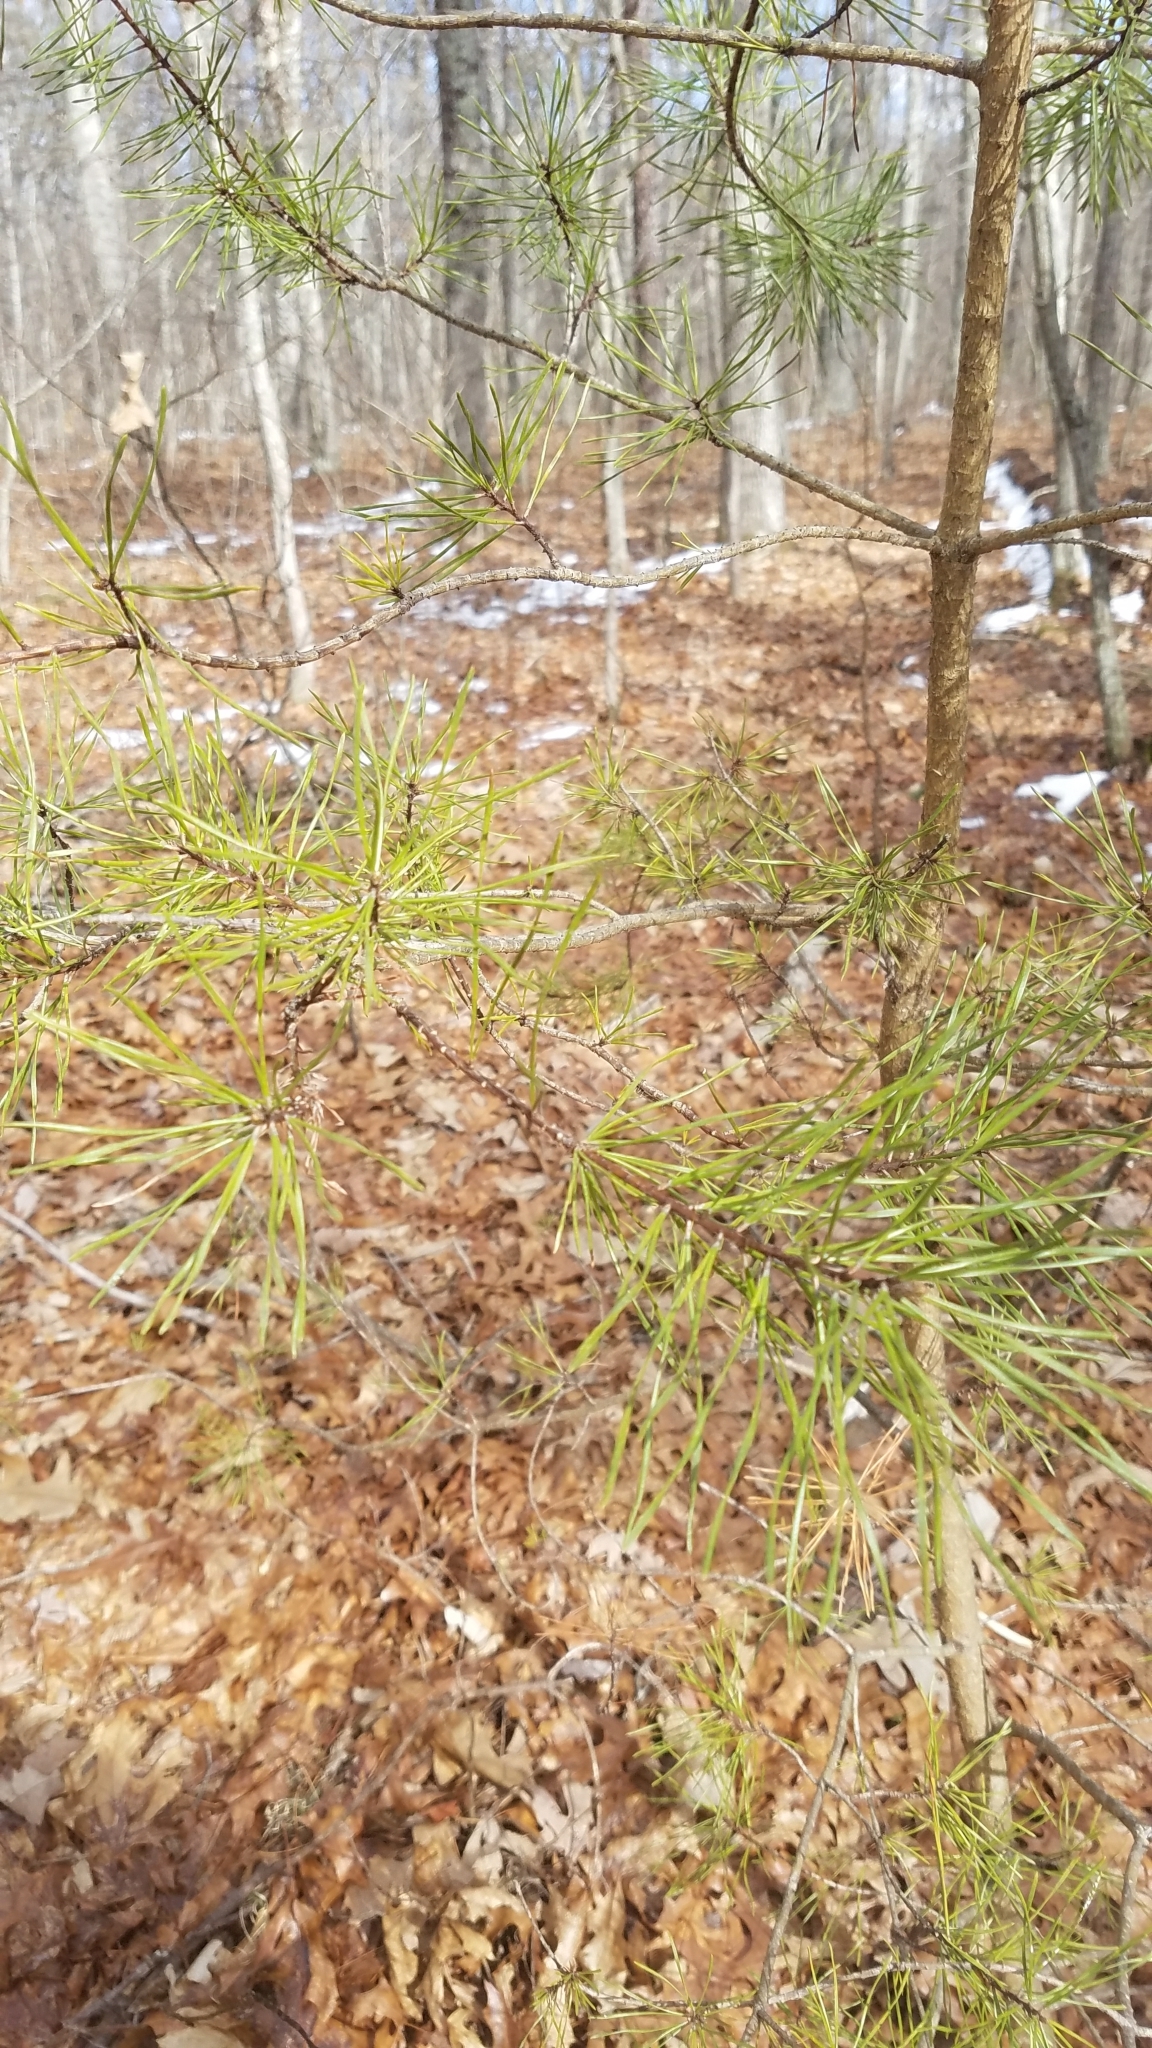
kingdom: Plantae
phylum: Tracheophyta
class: Pinopsida
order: Pinales
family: Pinaceae
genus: Pinus
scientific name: Pinus virginiana
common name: Scrub pine
